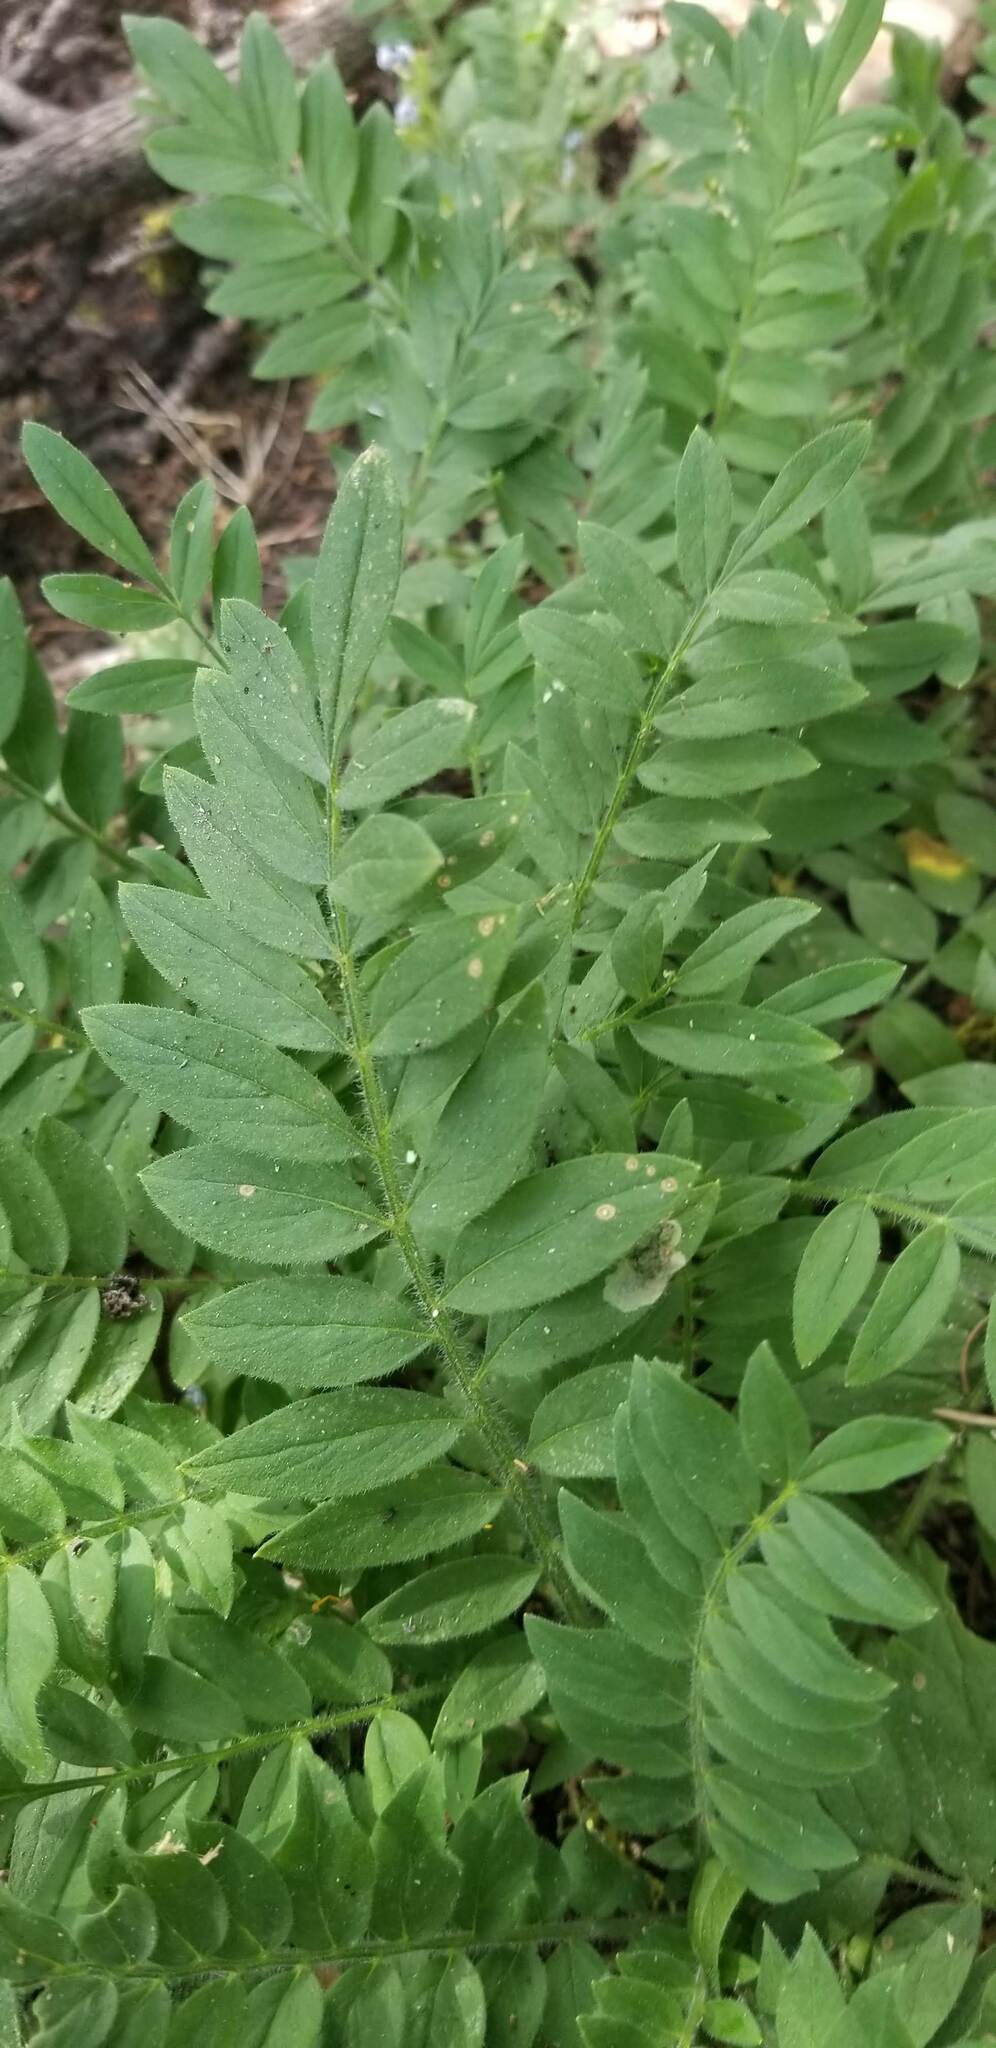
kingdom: Plantae
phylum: Tracheophyta
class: Magnoliopsida
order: Ericales
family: Polemoniaceae
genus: Polemonium
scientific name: Polemonium californicum
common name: California jacob's ladder
